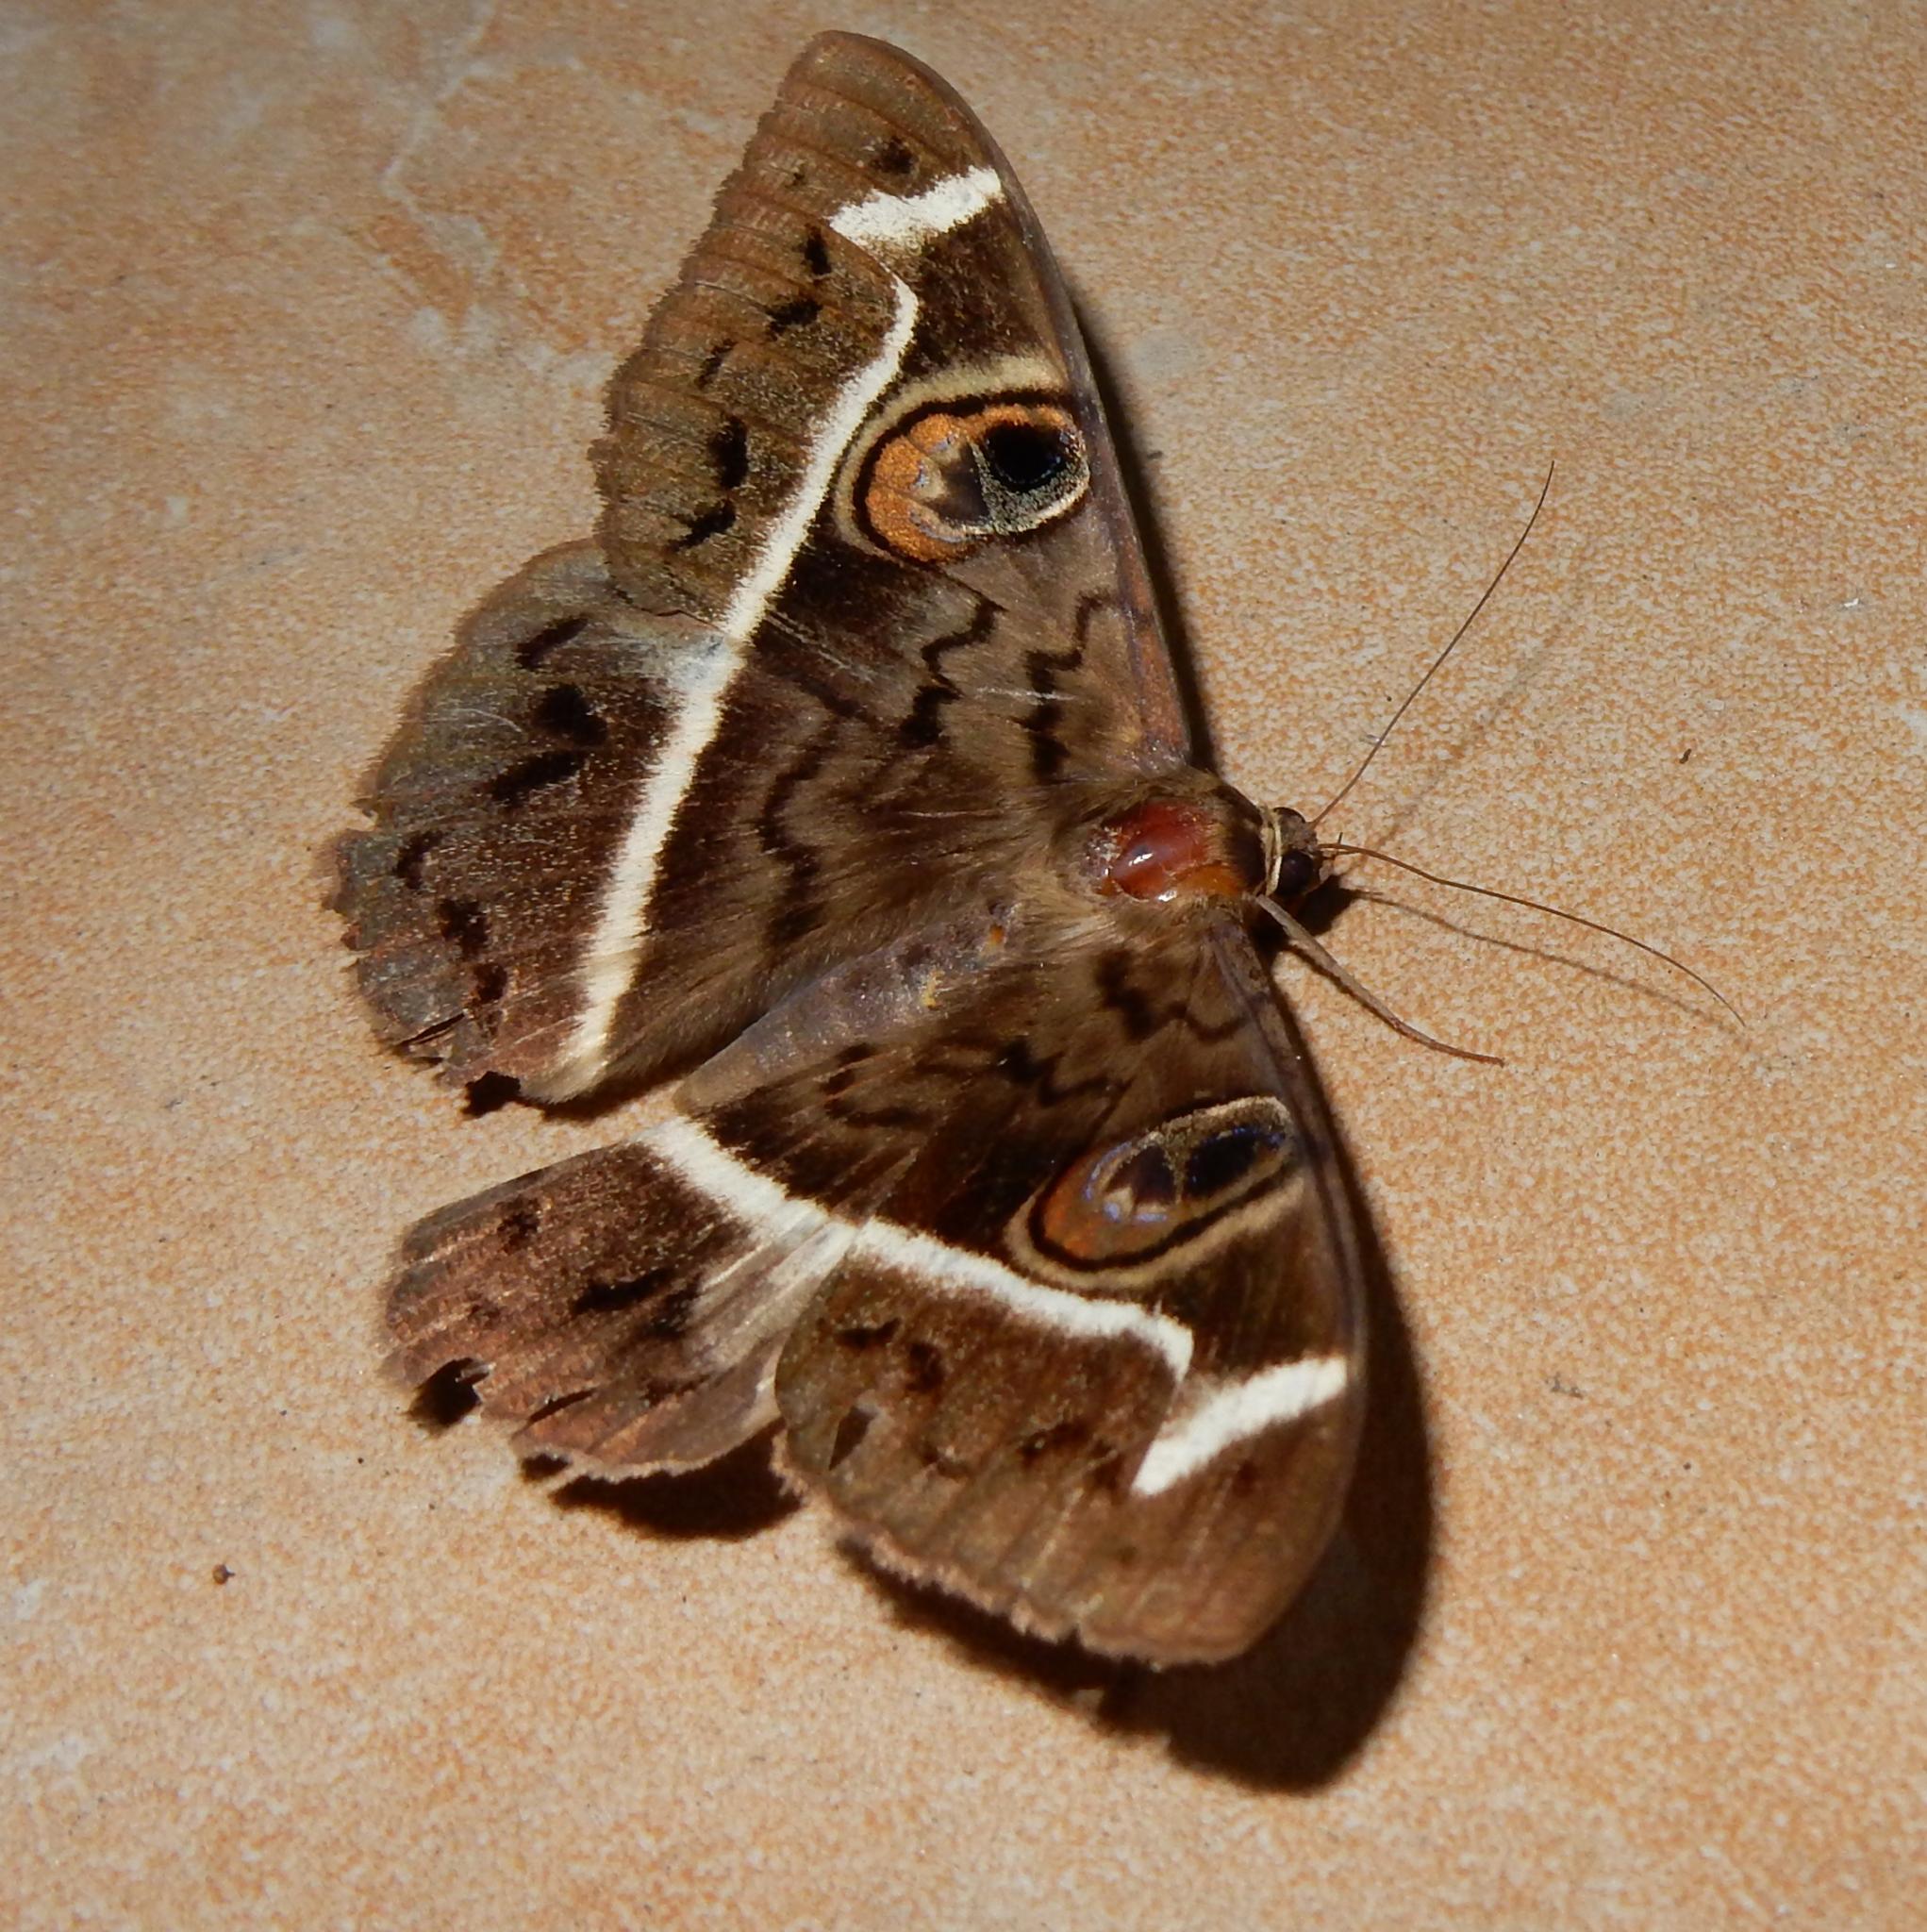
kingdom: Animalia
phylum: Arthropoda
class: Insecta
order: Lepidoptera
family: Erebidae
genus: Cyligramma
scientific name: Cyligramma magus
